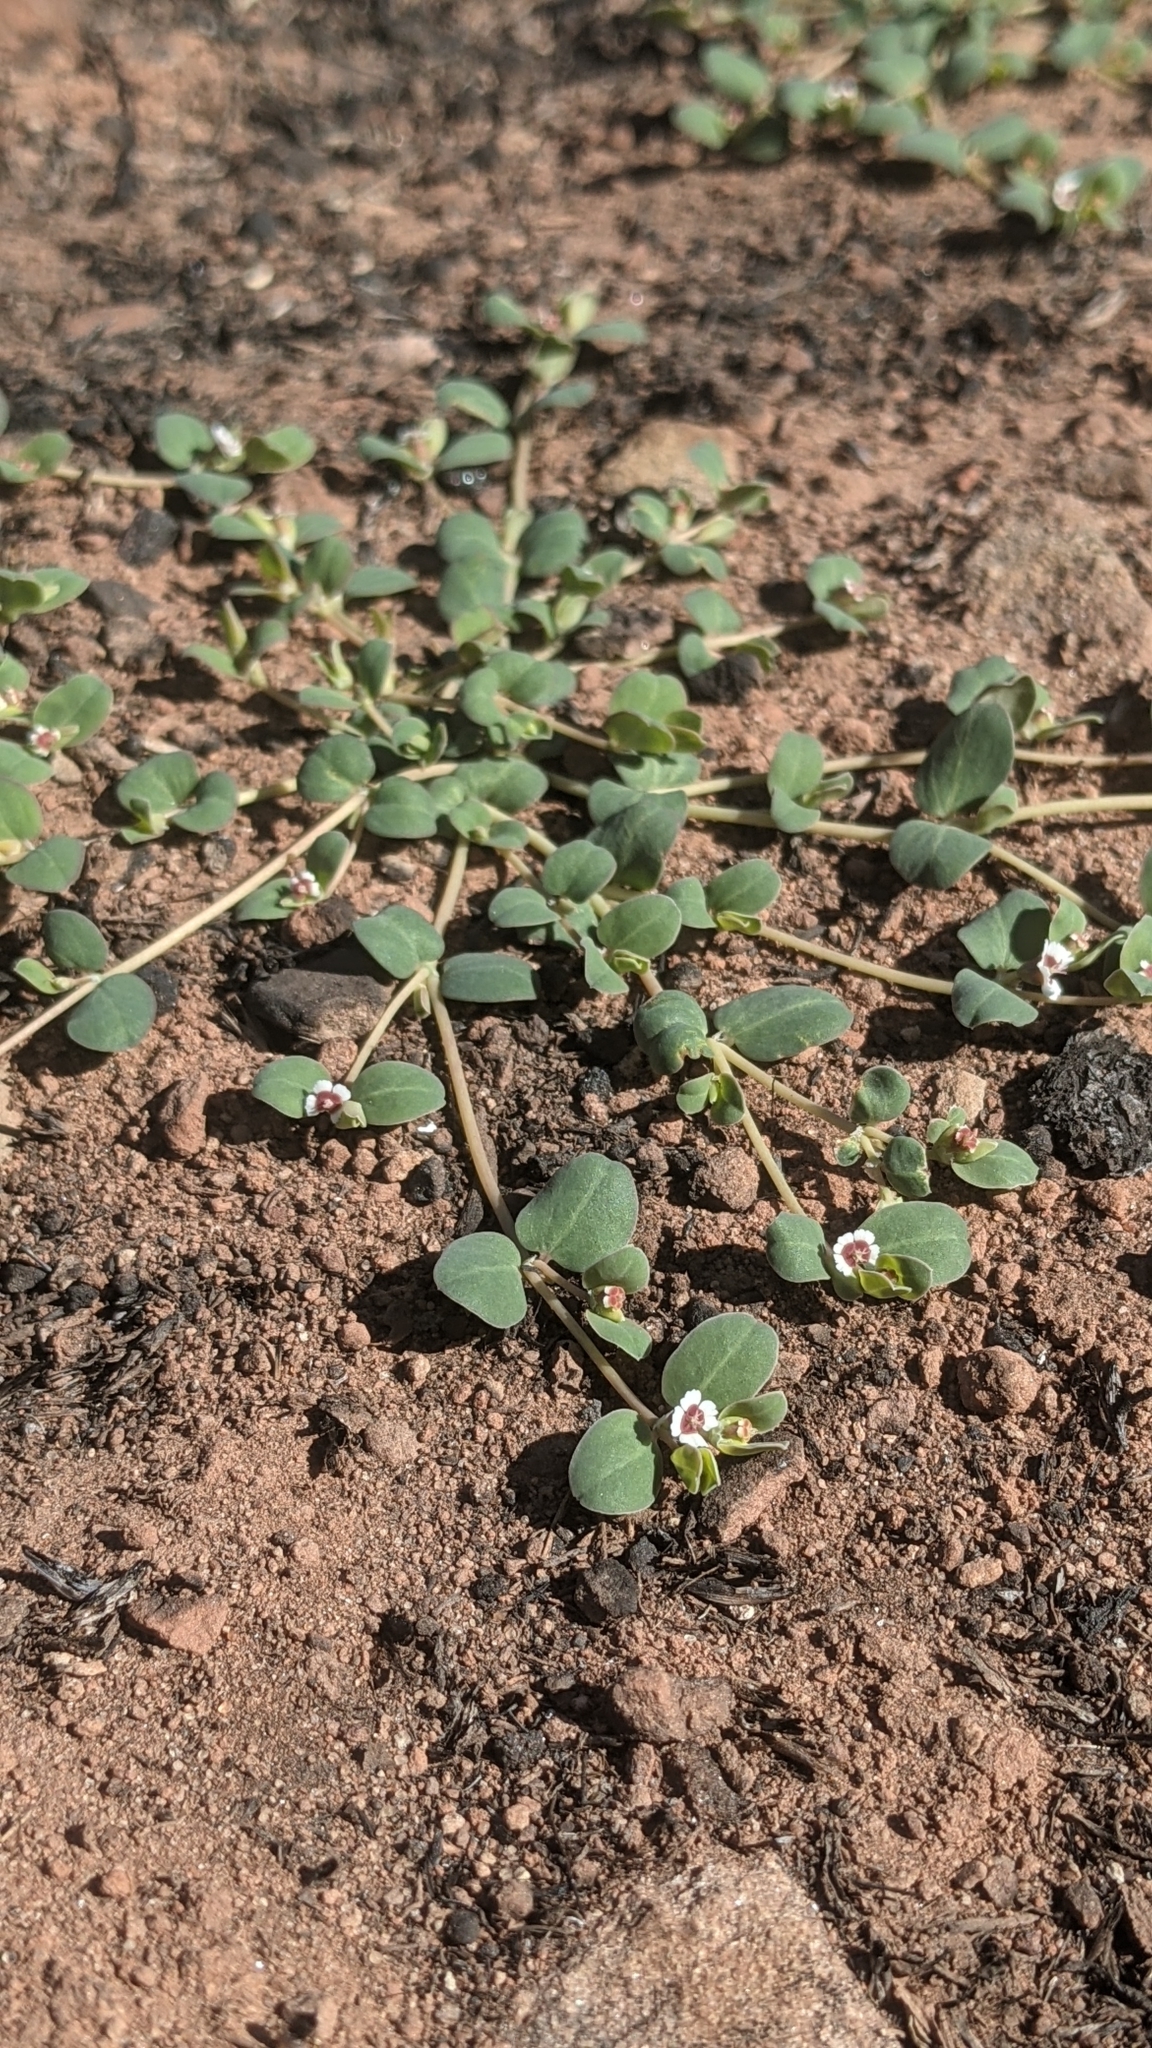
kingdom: Plantae
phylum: Tracheophyta
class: Magnoliopsida
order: Malpighiales
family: Euphorbiaceae
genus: Euphorbia
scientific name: Euphorbia albomarginata
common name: Whitemargin sandmat
